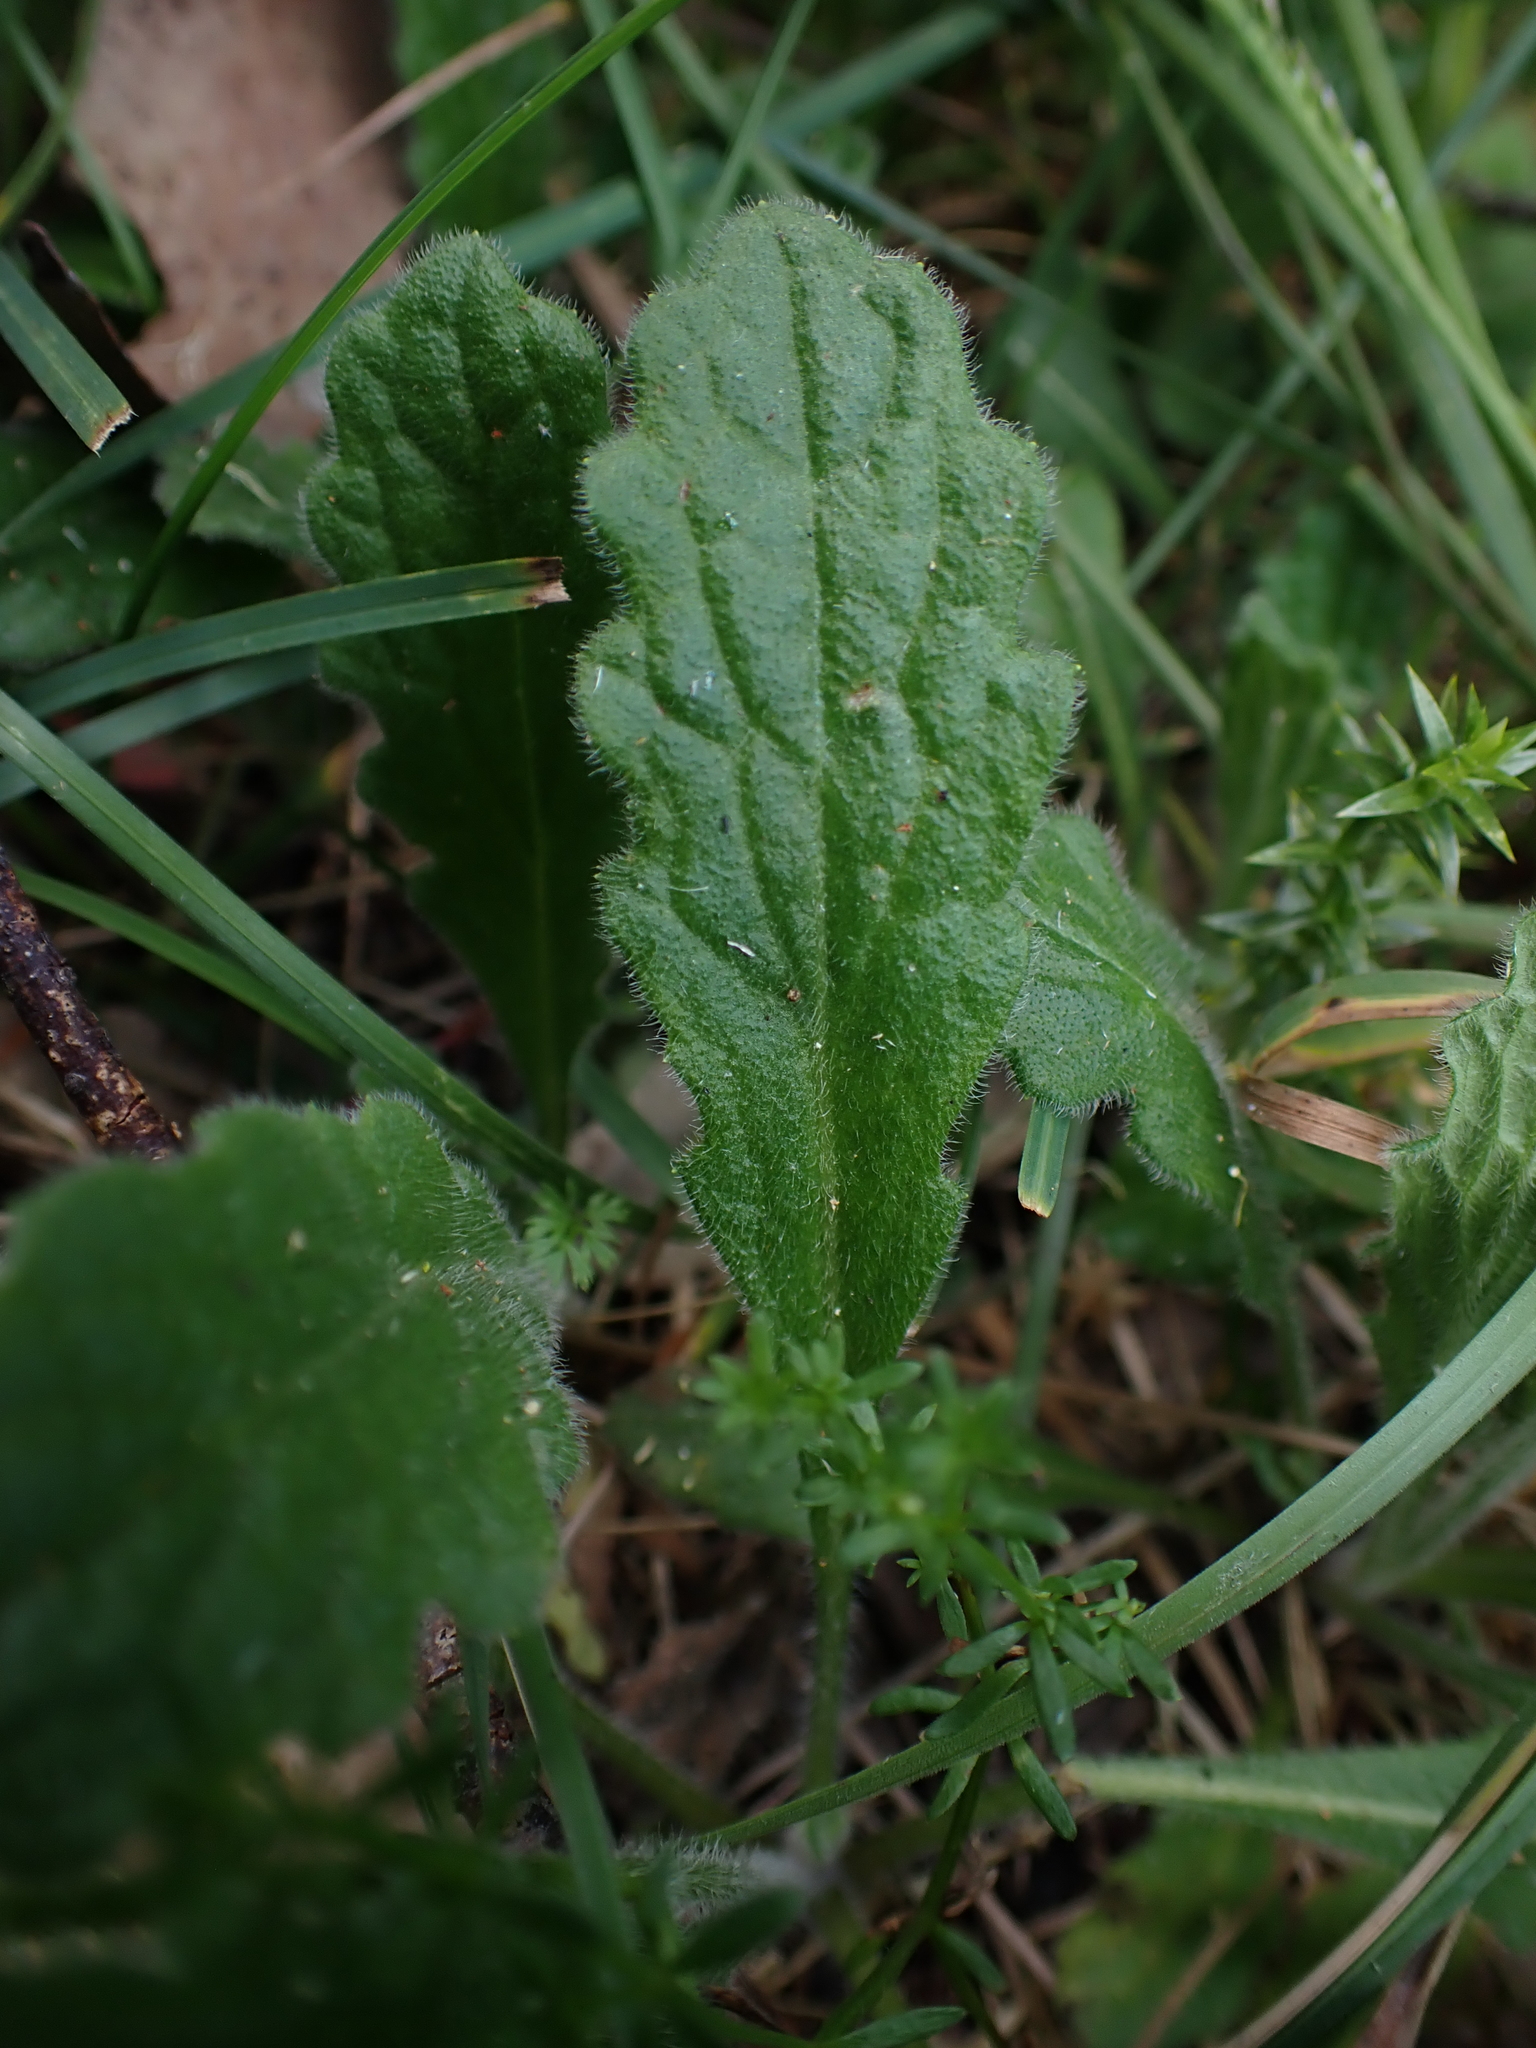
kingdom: Plantae
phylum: Tracheophyta
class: Magnoliopsida
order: Asterales
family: Asteraceae
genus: Lagenophora
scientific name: Lagenophora adenosa
